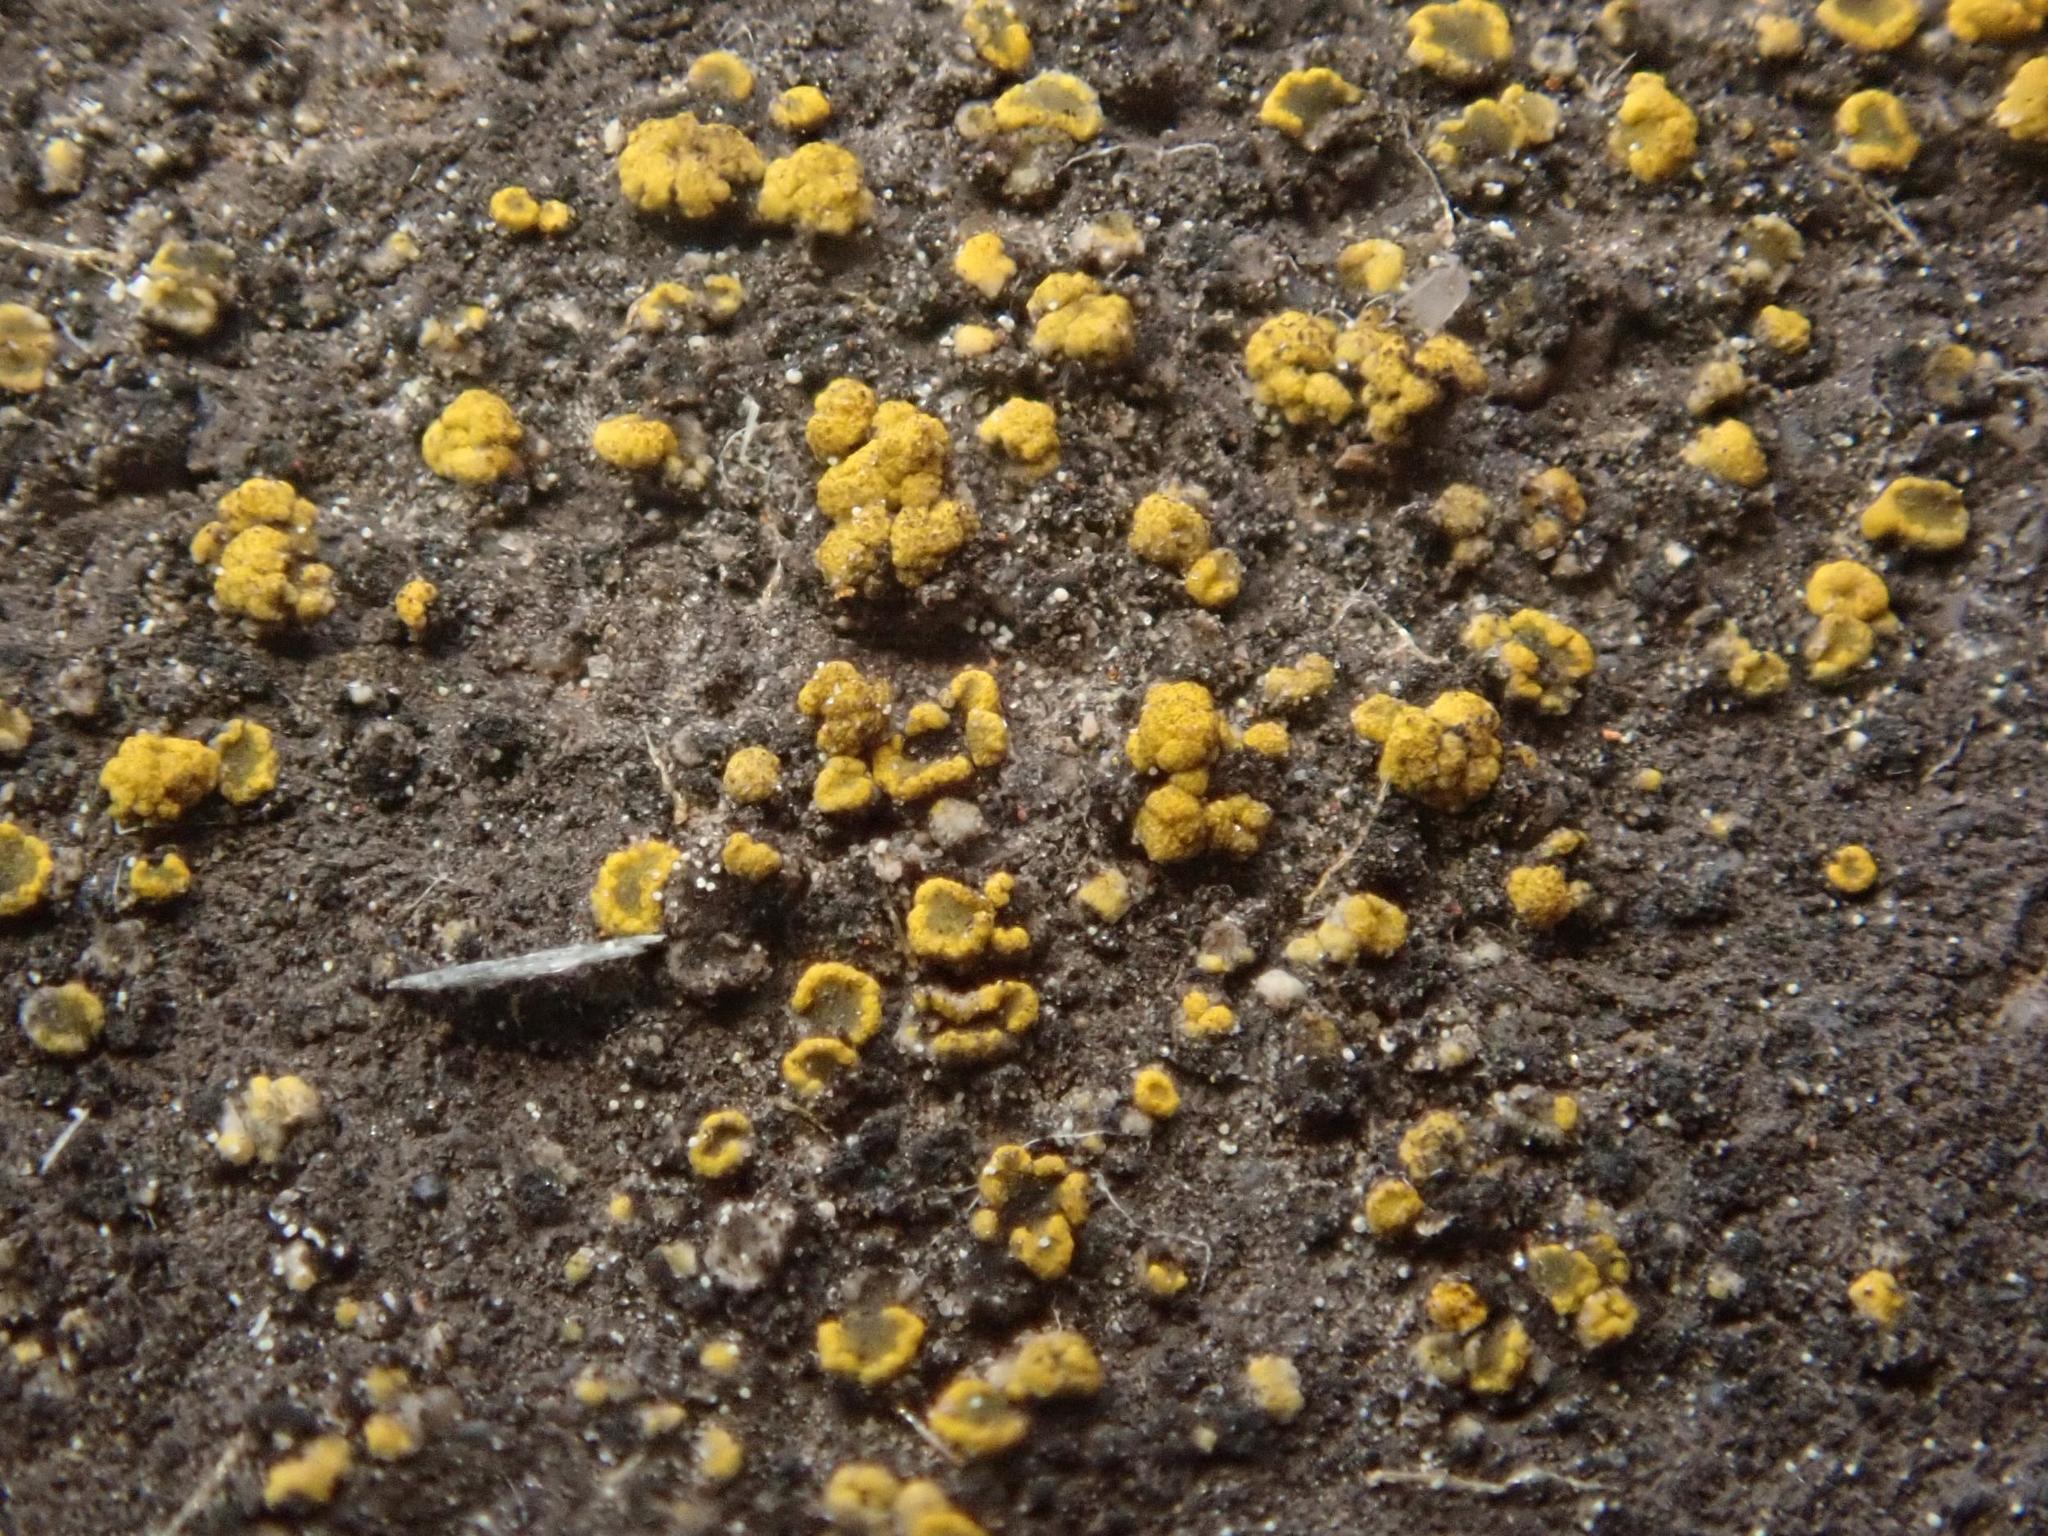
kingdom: Fungi
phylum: Ascomycota
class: Candelariomycetes
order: Candelariales
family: Candelariaceae
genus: Candelariella
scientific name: Candelariella vitellina
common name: Common goldspeck
